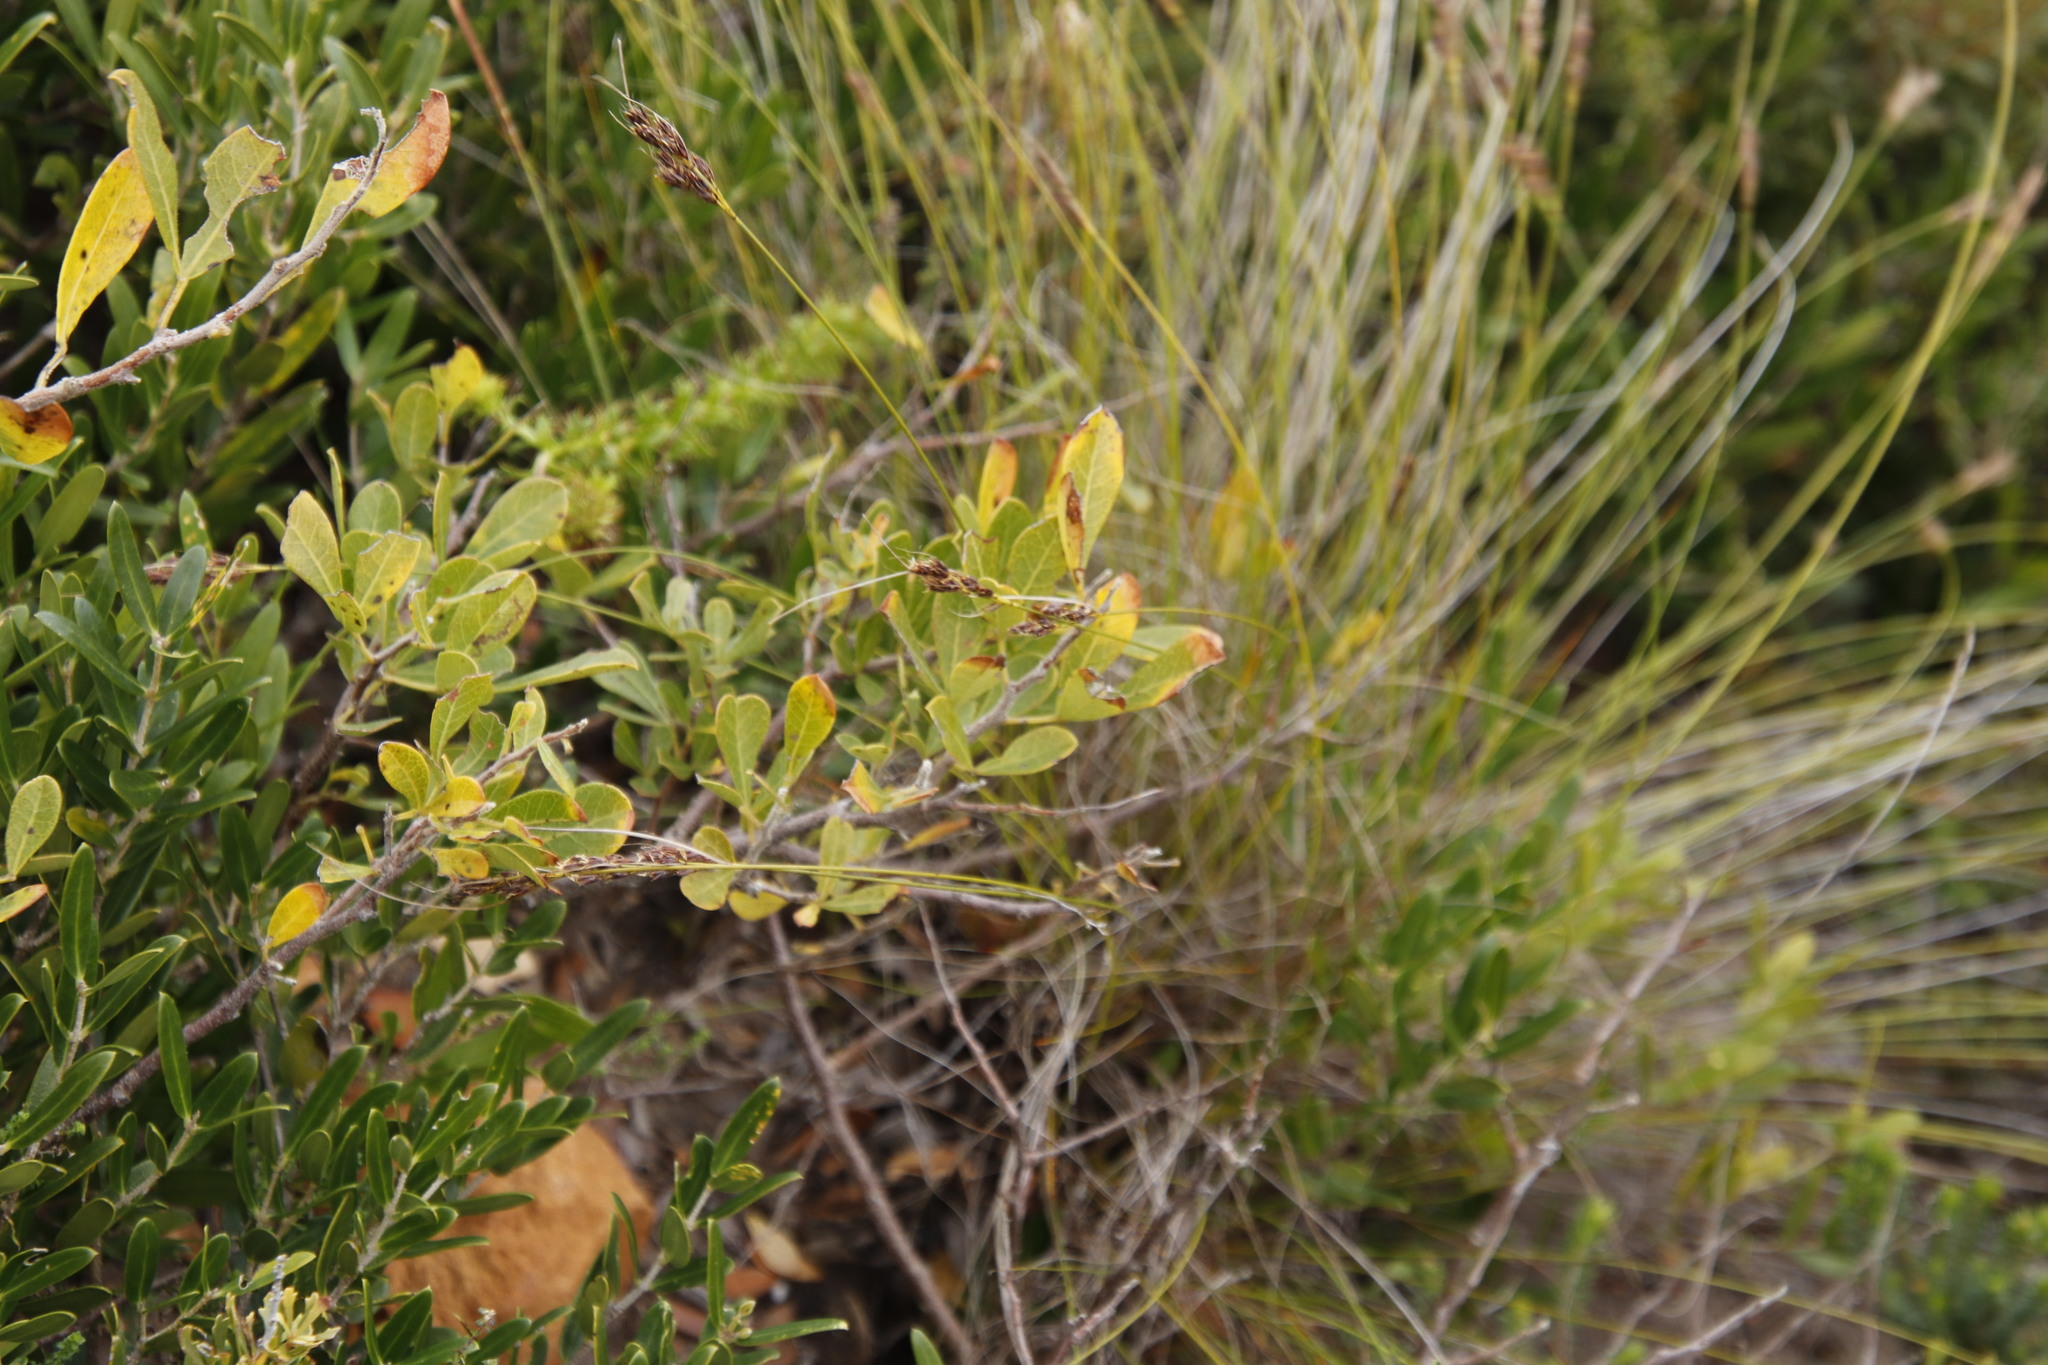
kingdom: Plantae
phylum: Tracheophyta
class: Magnoliopsida
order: Sapindales
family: Anacardiaceae
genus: Searsia
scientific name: Searsia laevigata
